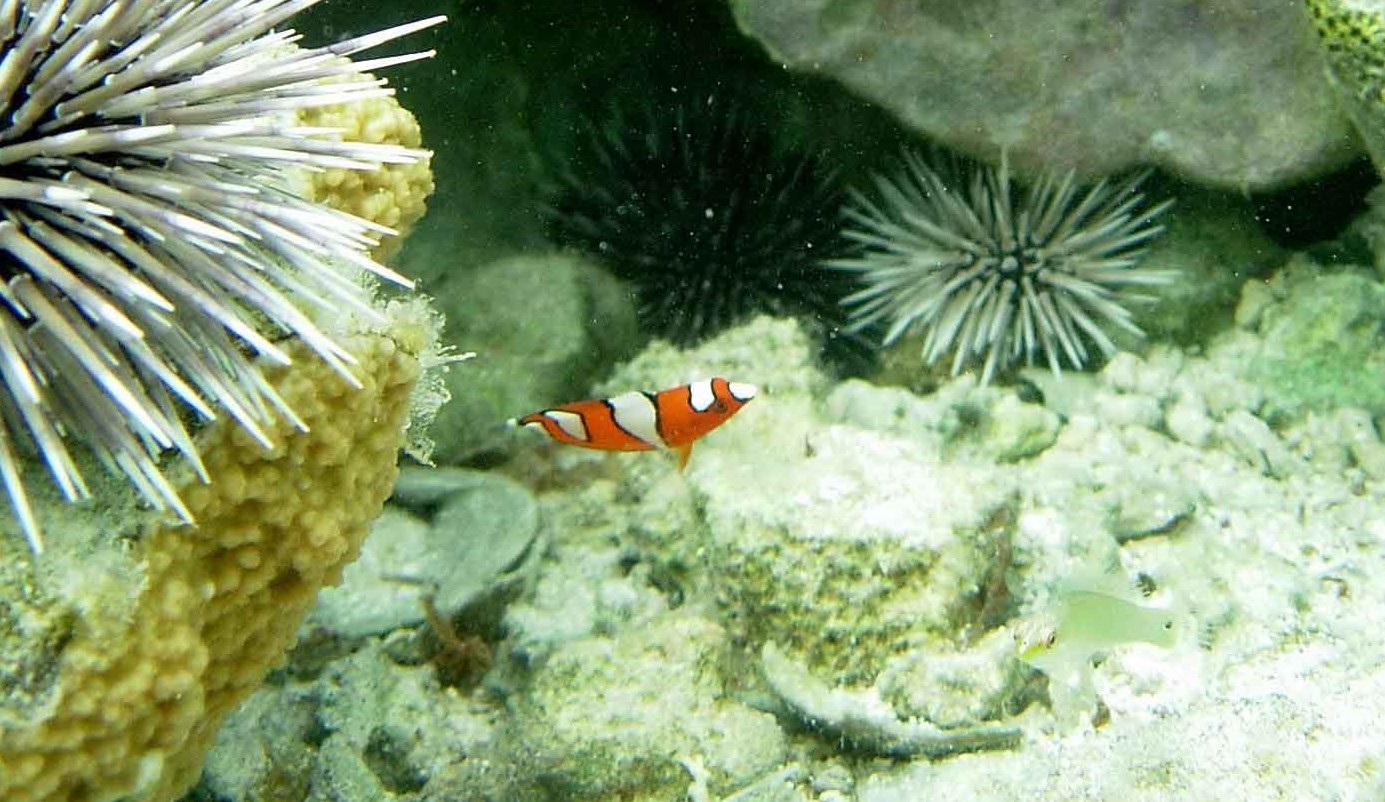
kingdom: Animalia
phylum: Chordata
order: Perciformes
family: Labridae
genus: Coris
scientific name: Coris gaimard
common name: Yellowtail coris
